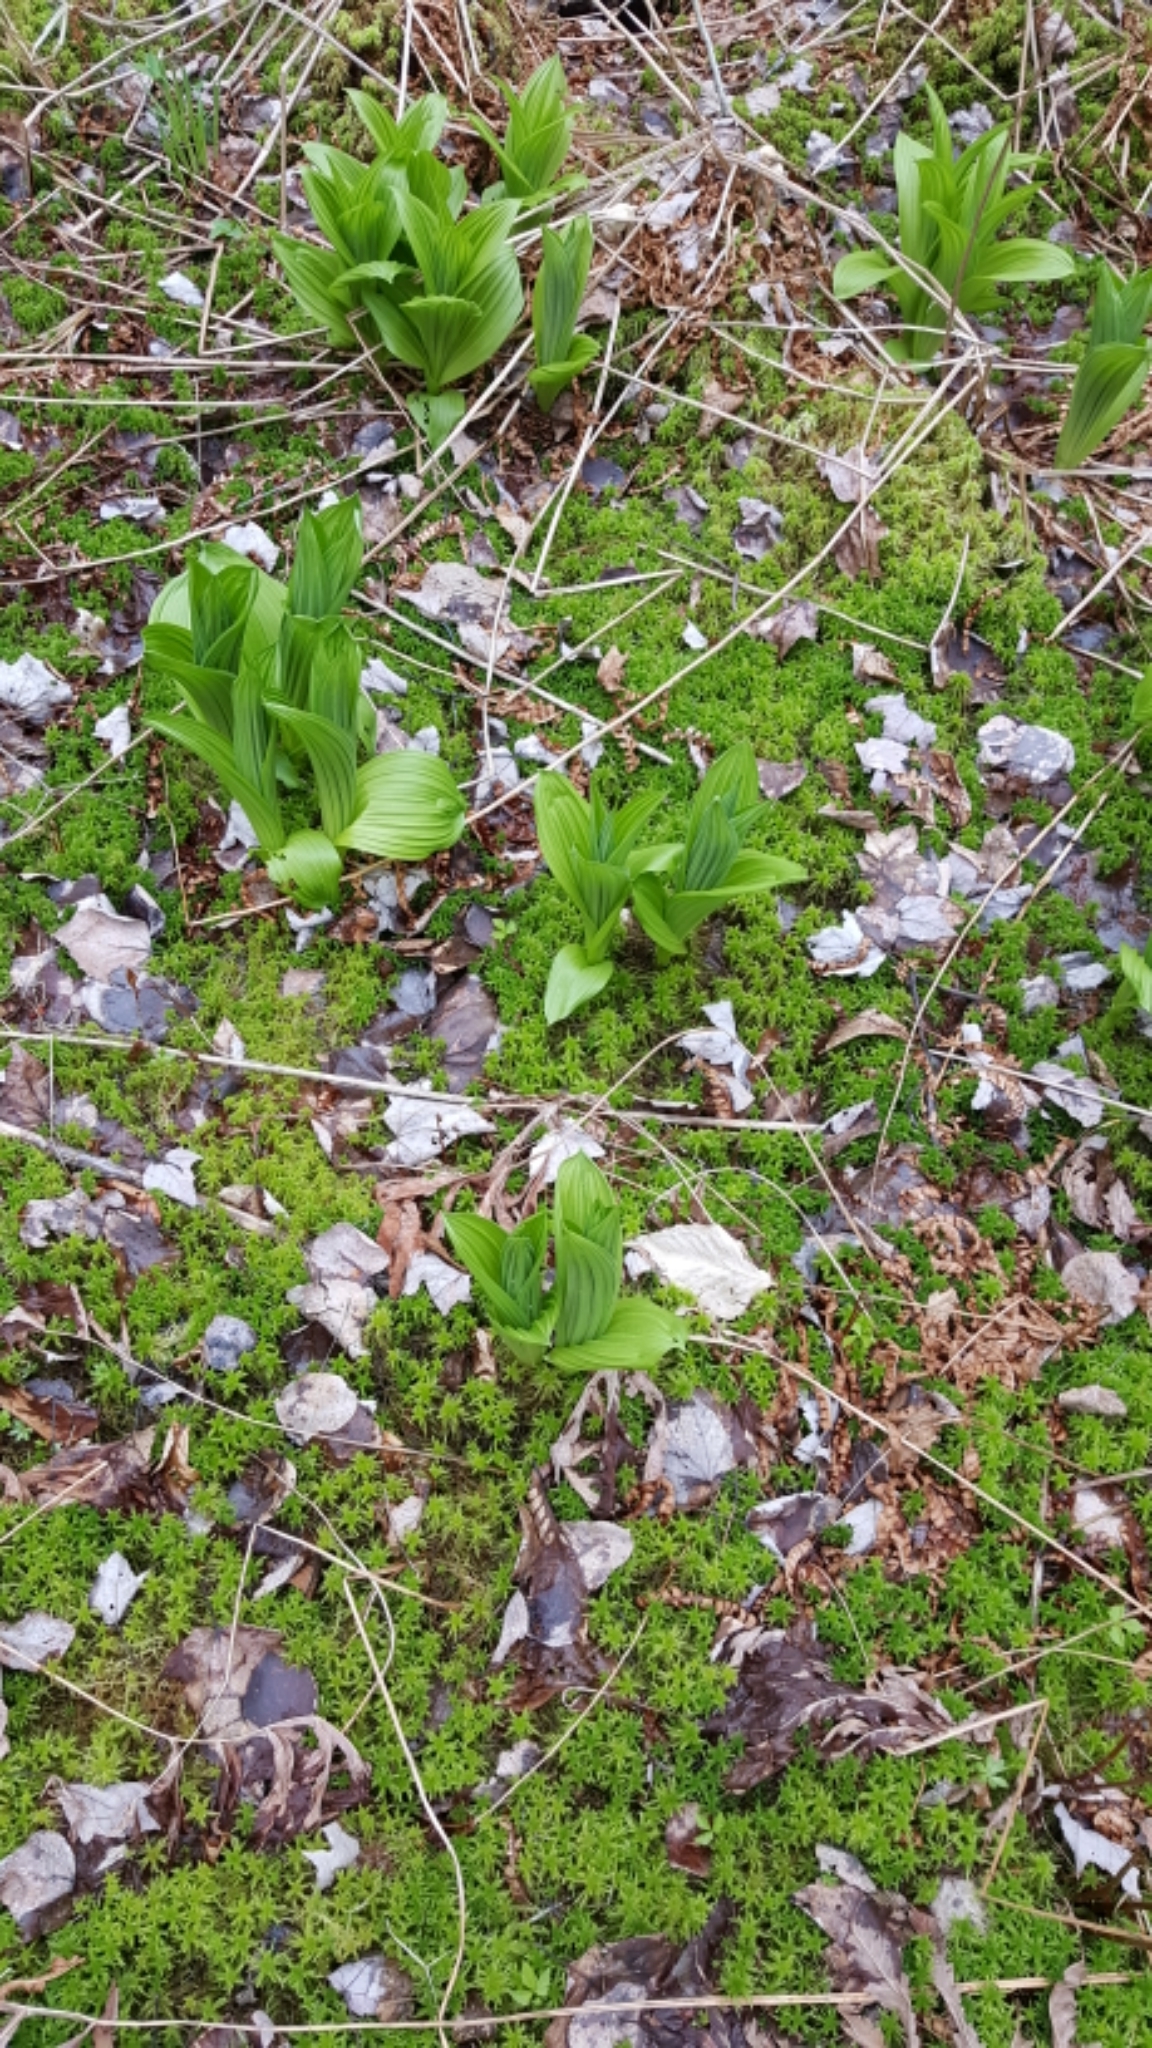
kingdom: Plantae
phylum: Tracheophyta
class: Liliopsida
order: Liliales
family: Melanthiaceae
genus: Veratrum
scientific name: Veratrum viride
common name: American false hellebore
